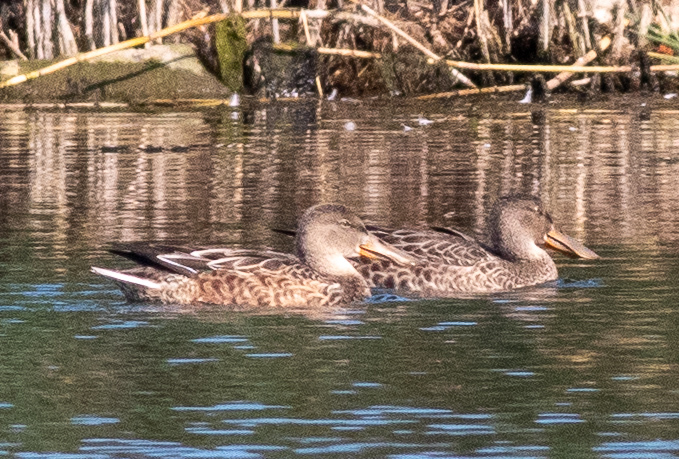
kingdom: Animalia
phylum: Chordata
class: Aves
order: Anseriformes
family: Anatidae
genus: Spatula
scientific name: Spatula clypeata
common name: Northern shoveler
